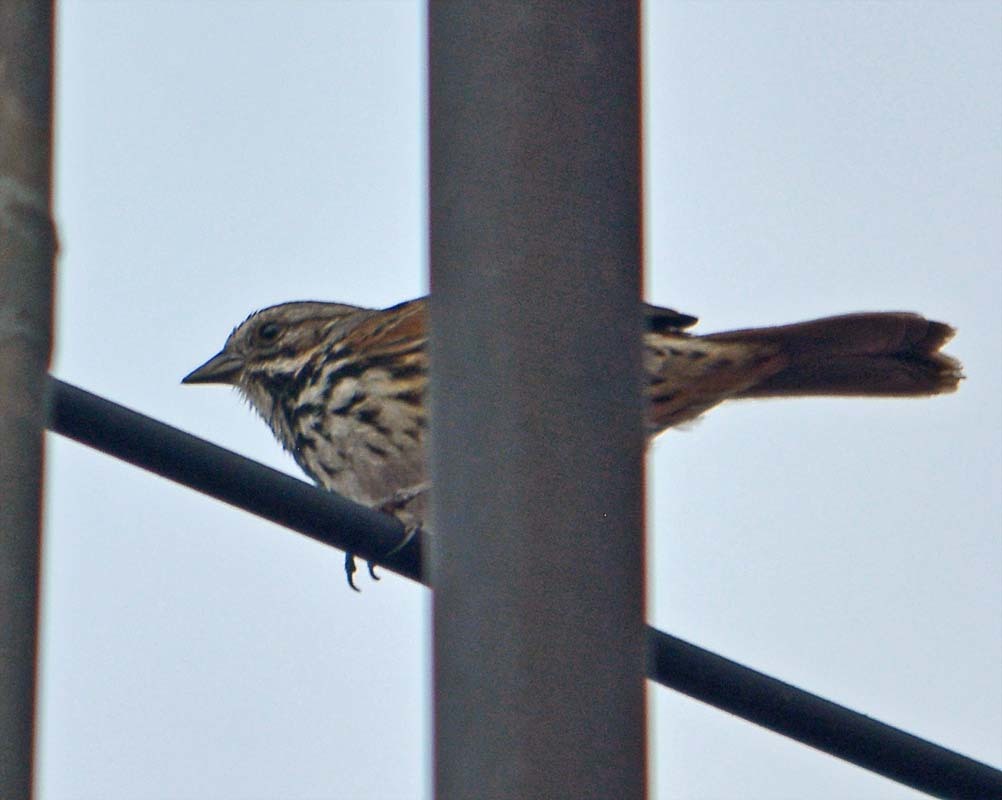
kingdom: Animalia
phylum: Chordata
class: Aves
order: Passeriformes
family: Passerellidae
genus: Melospiza
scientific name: Melospiza melodia
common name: Song sparrow
